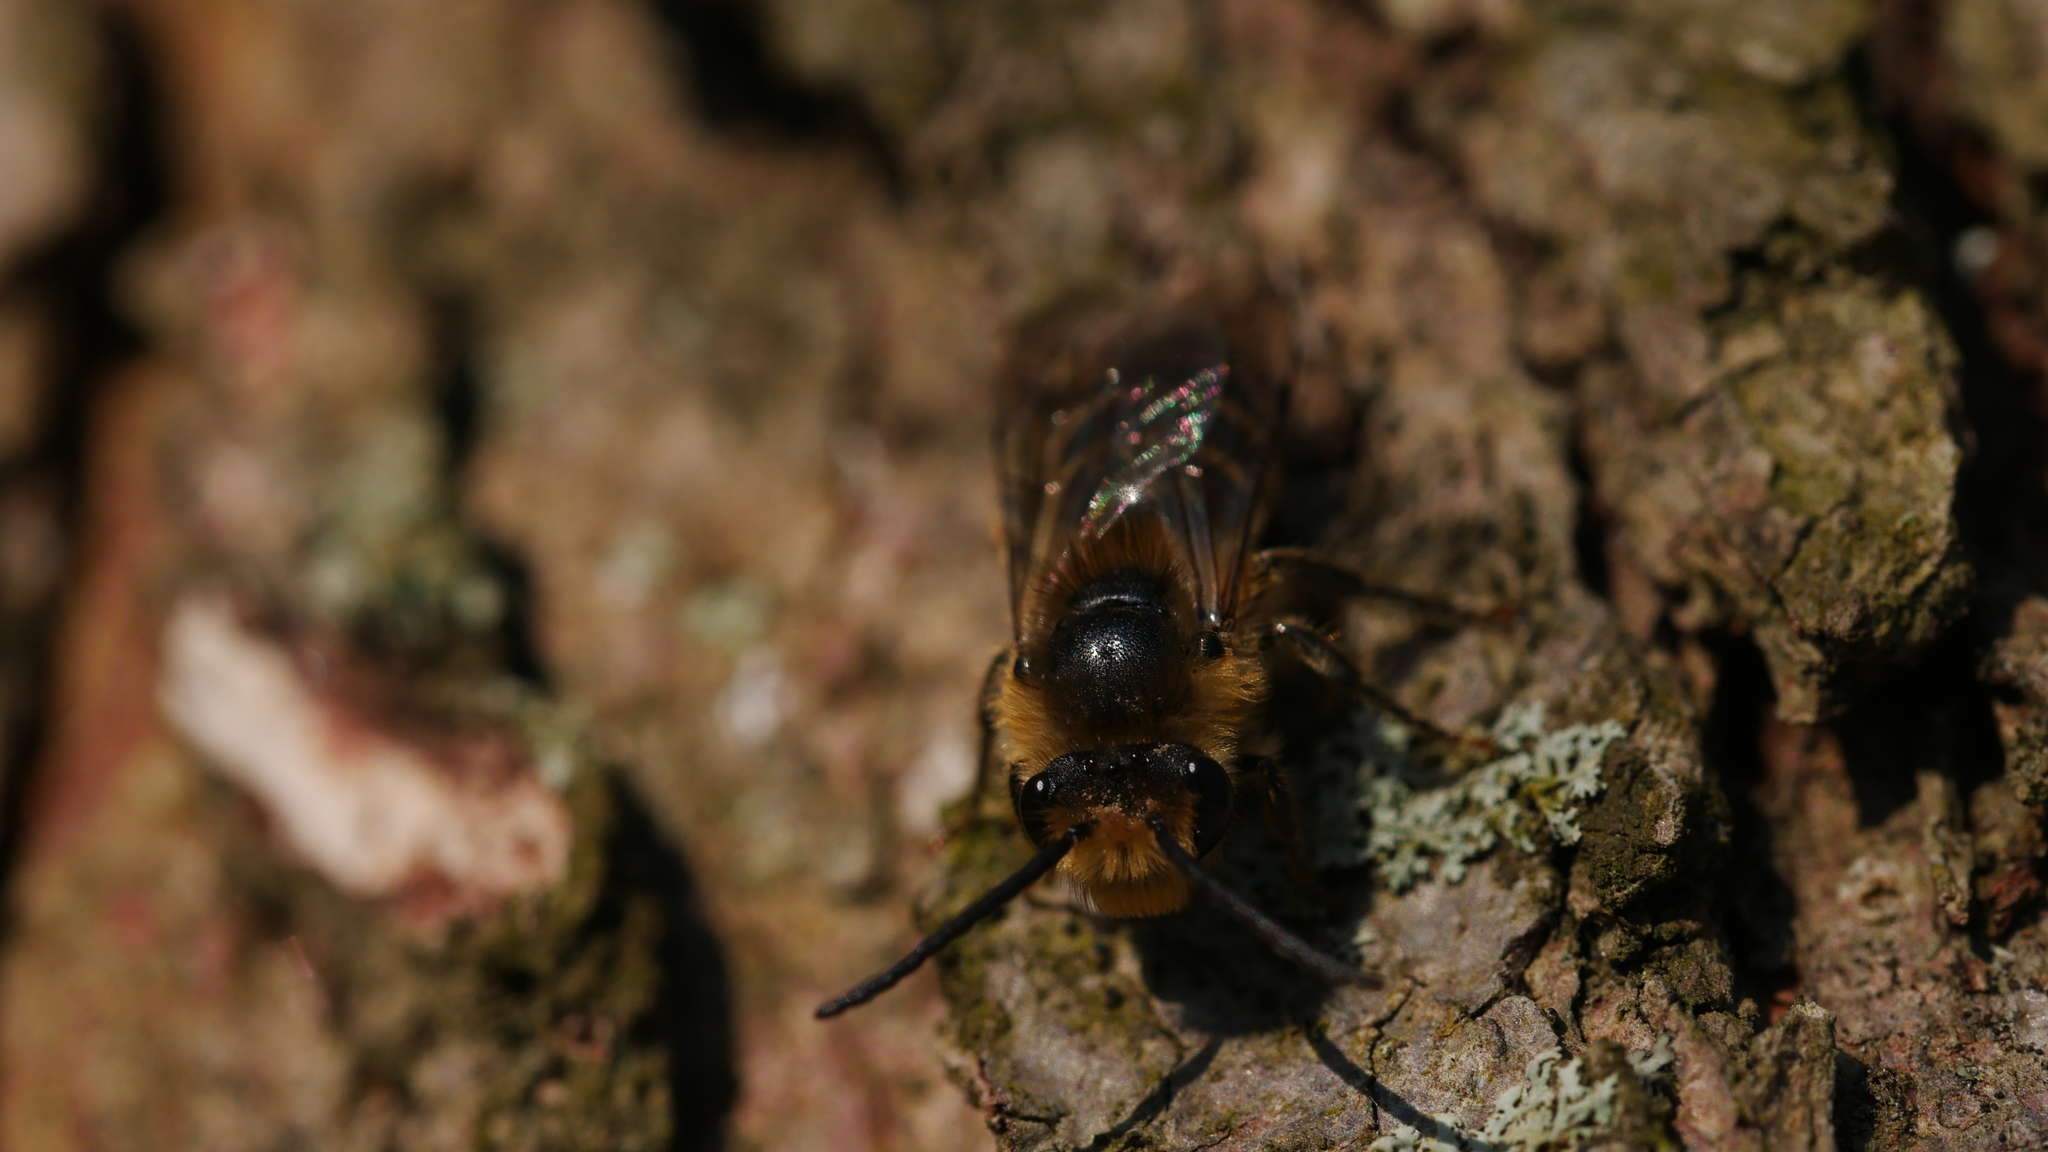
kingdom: Animalia
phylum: Arthropoda
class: Insecta
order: Hymenoptera
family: Colletidae
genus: Colletes
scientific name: Colletes inaequalis
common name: Unequal cellophane bee
